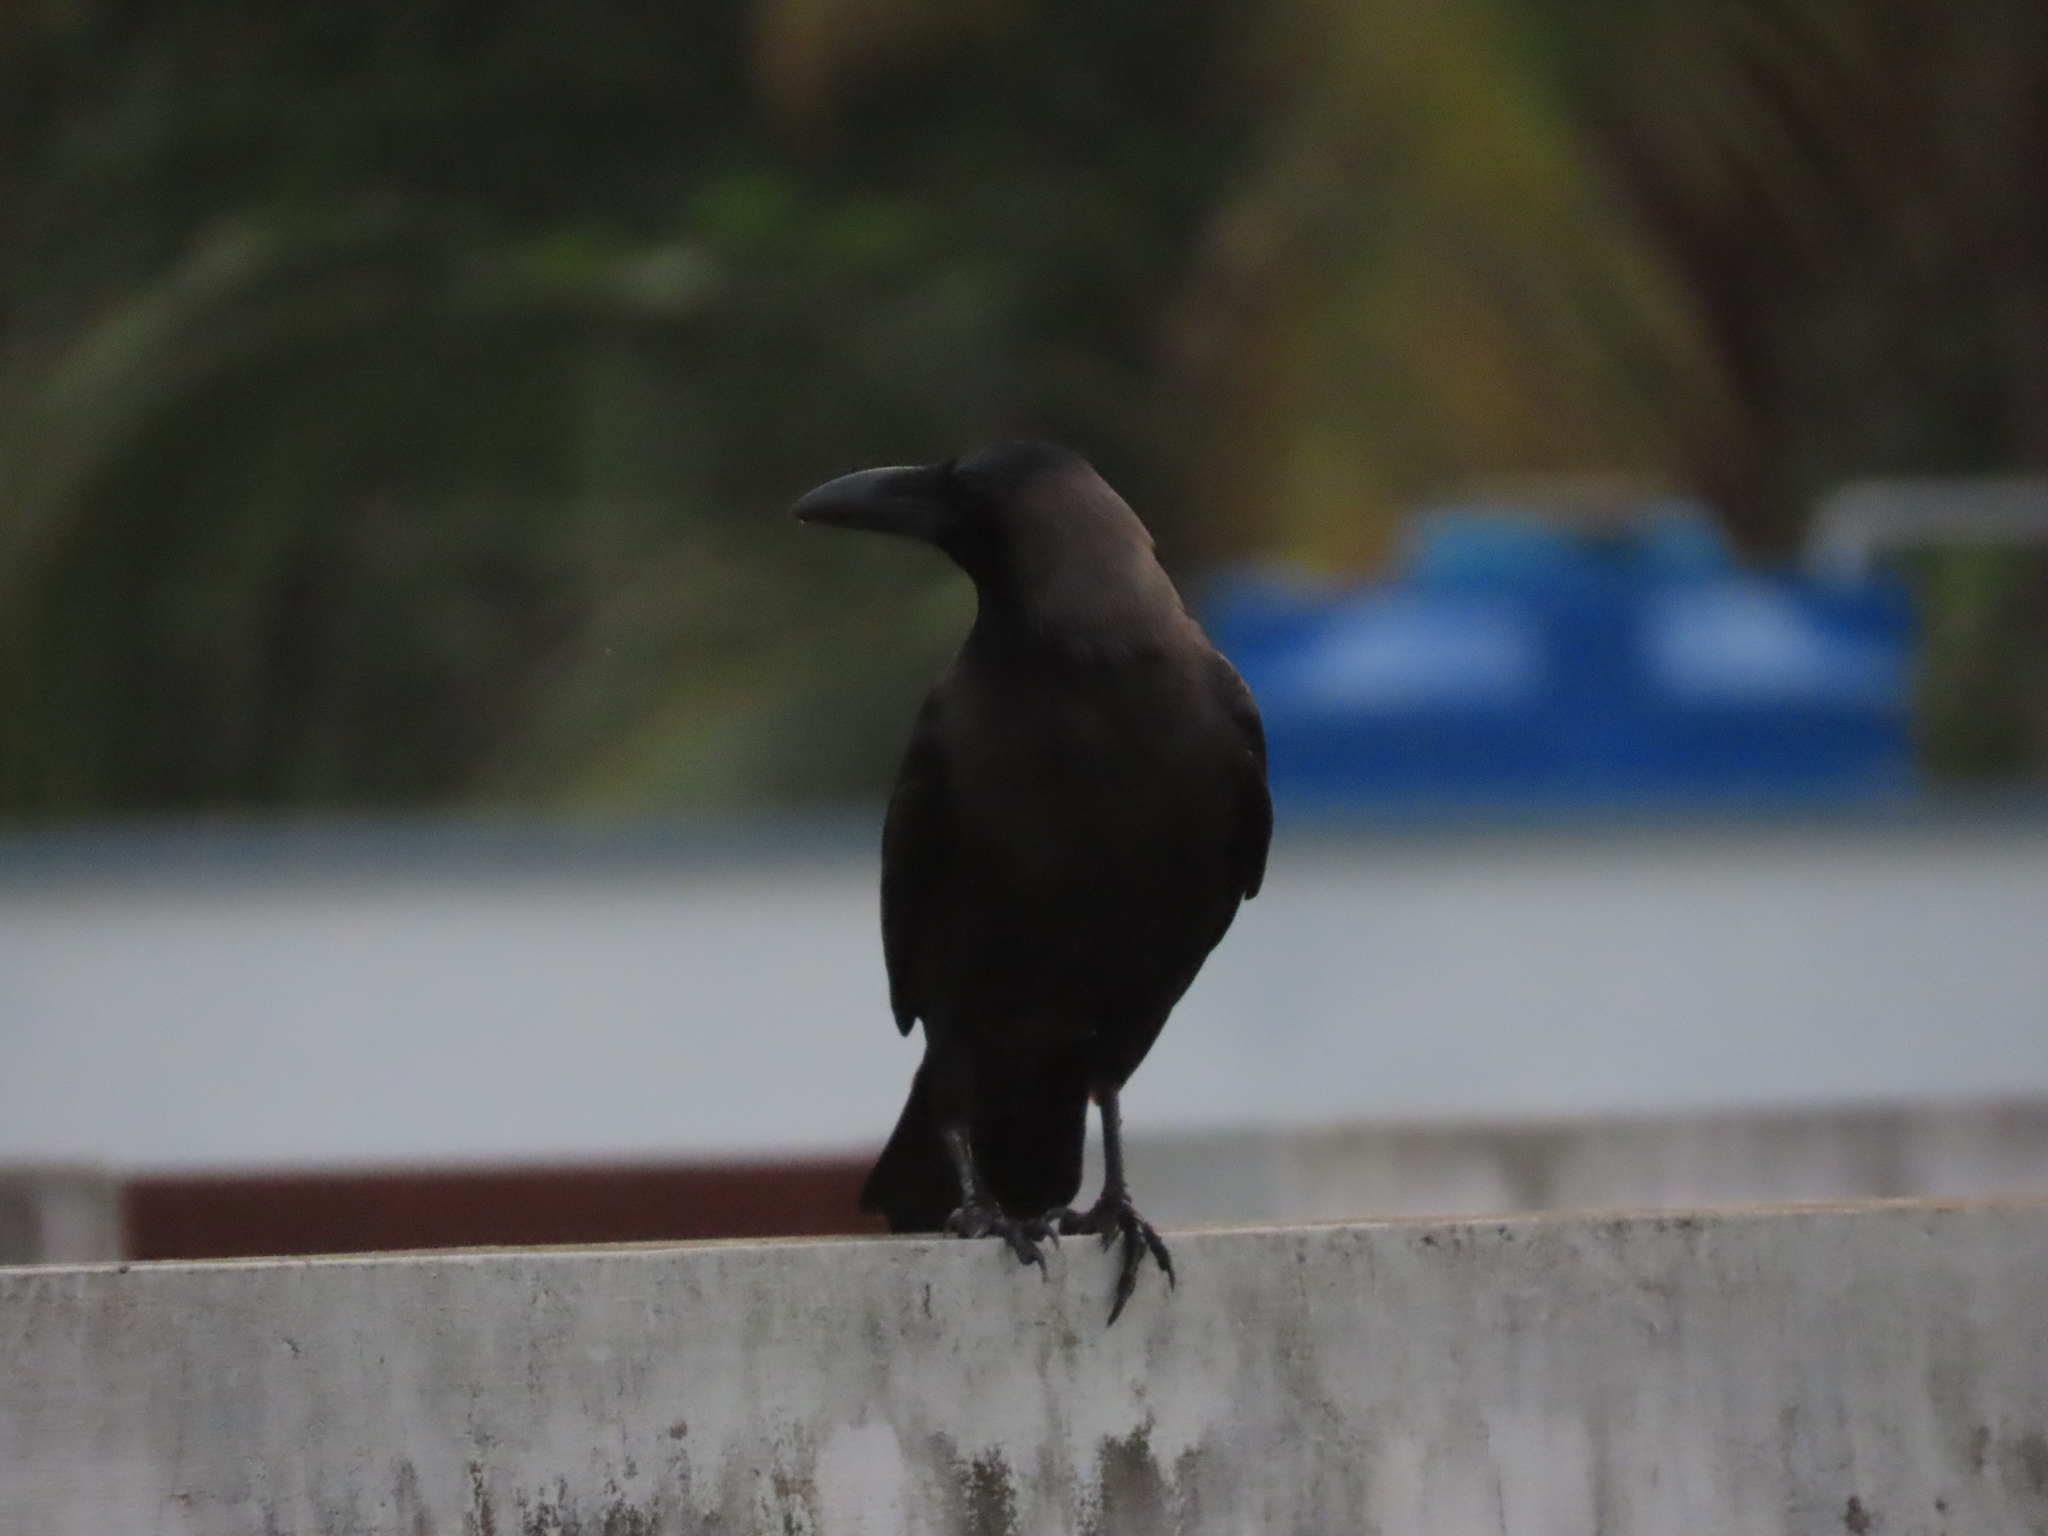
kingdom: Animalia
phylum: Chordata
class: Aves
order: Passeriformes
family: Corvidae
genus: Corvus
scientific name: Corvus splendens
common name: House crow
